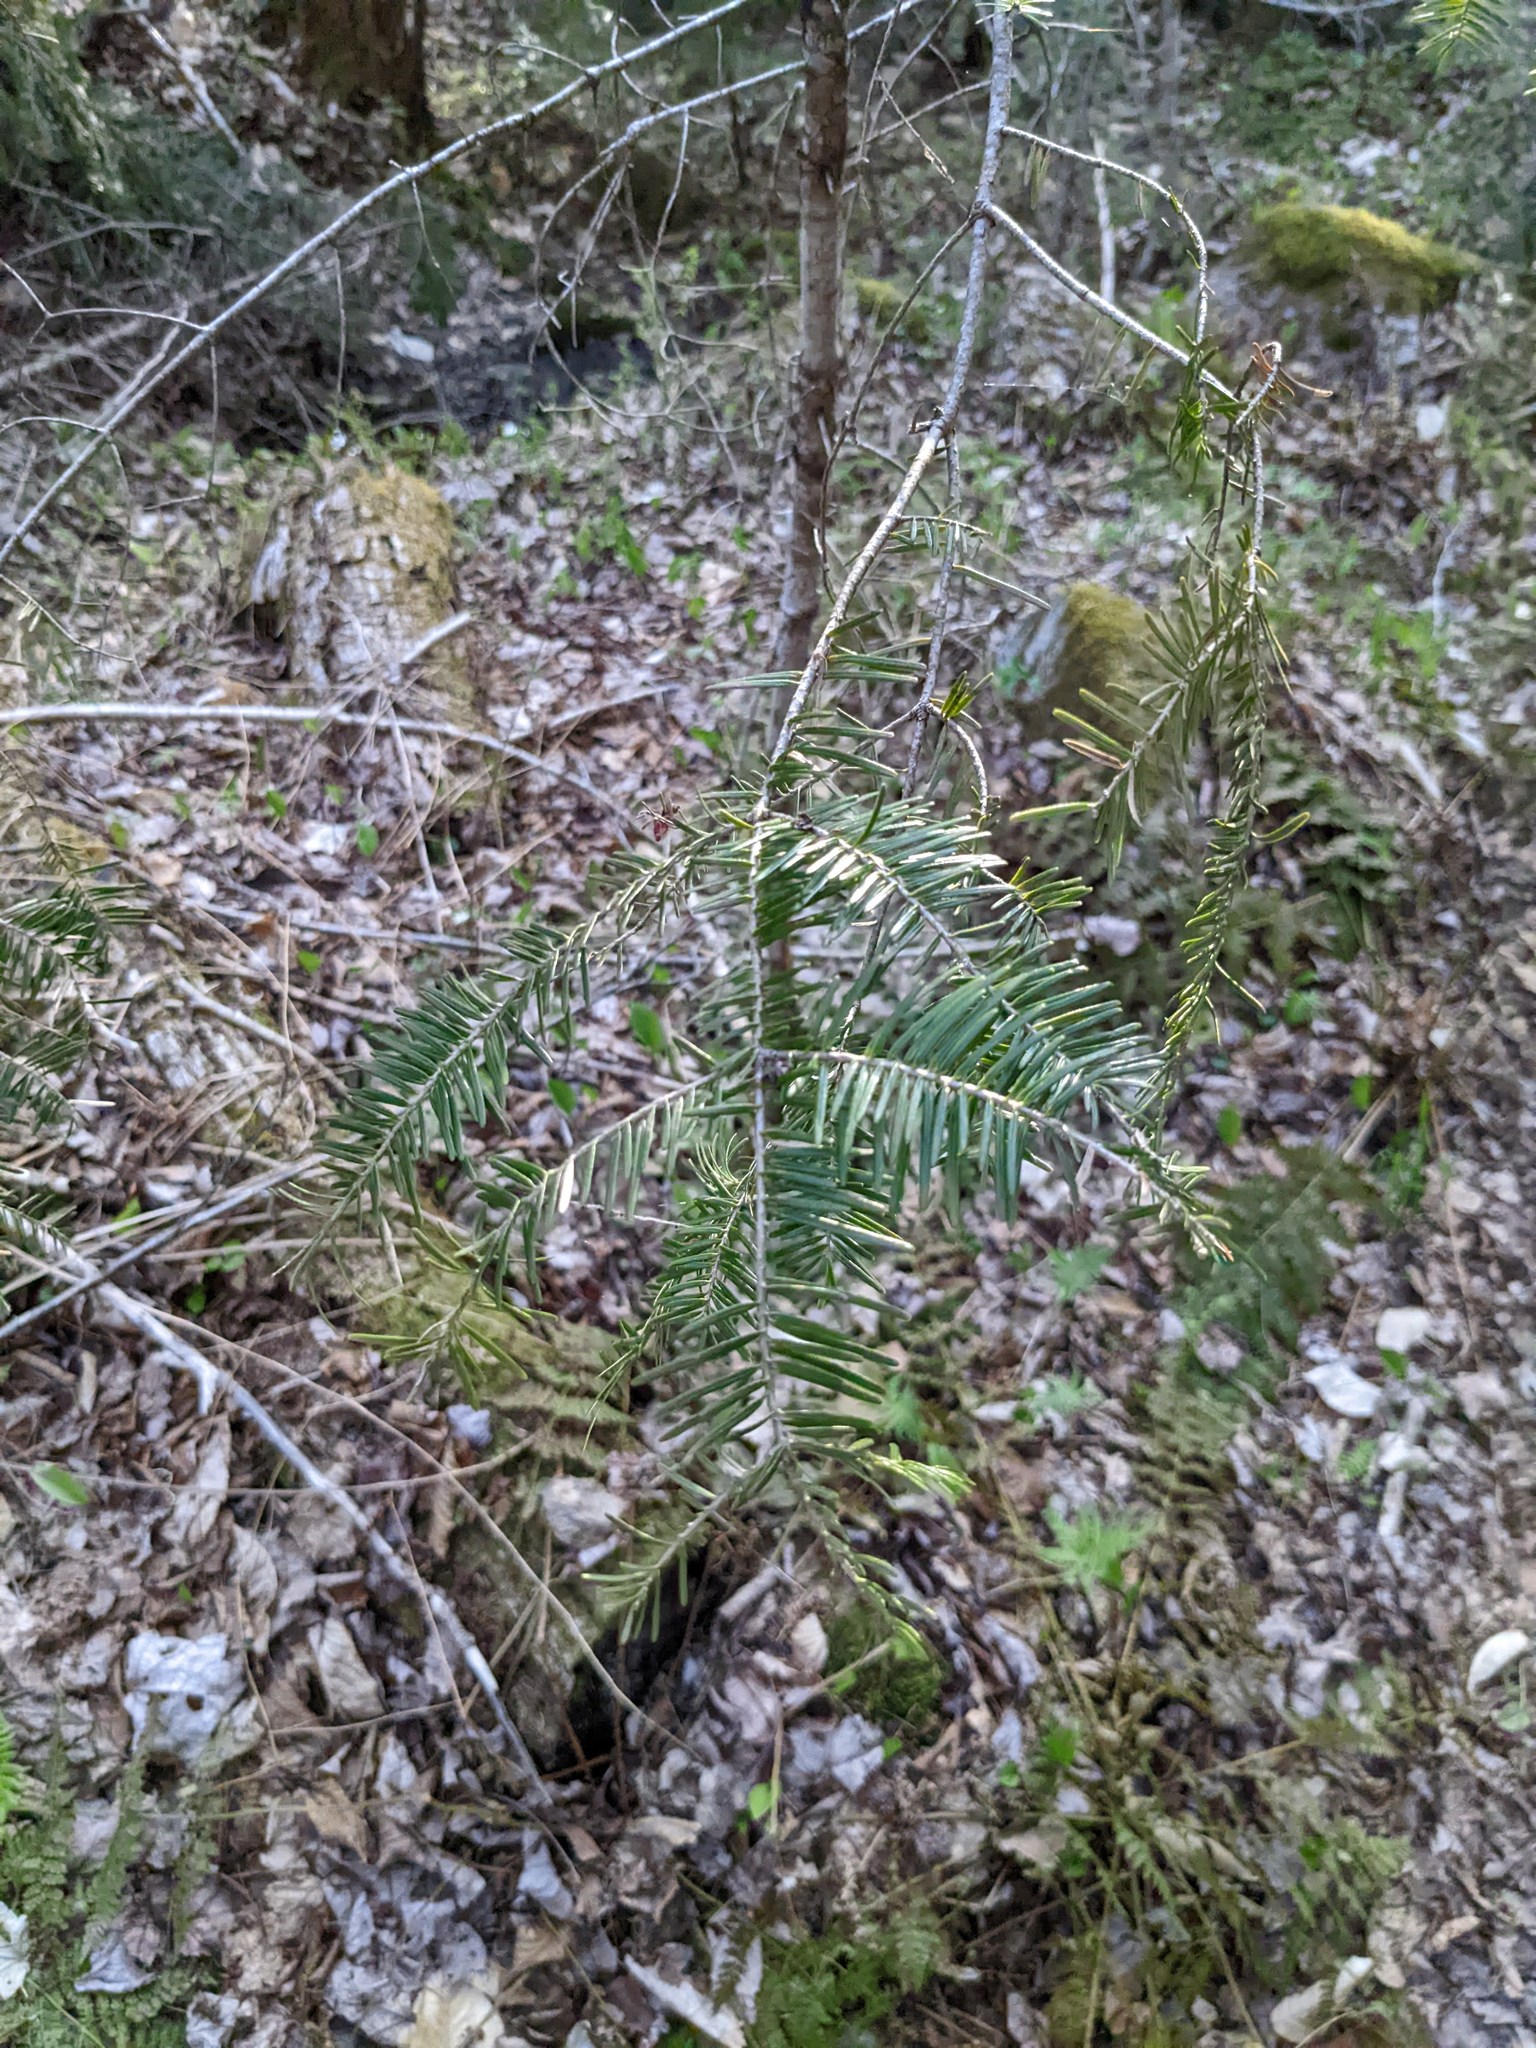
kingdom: Plantae
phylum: Tracheophyta
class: Pinopsida
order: Pinales
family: Pinaceae
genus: Abies
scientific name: Abies balsamea
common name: Balsam fir
